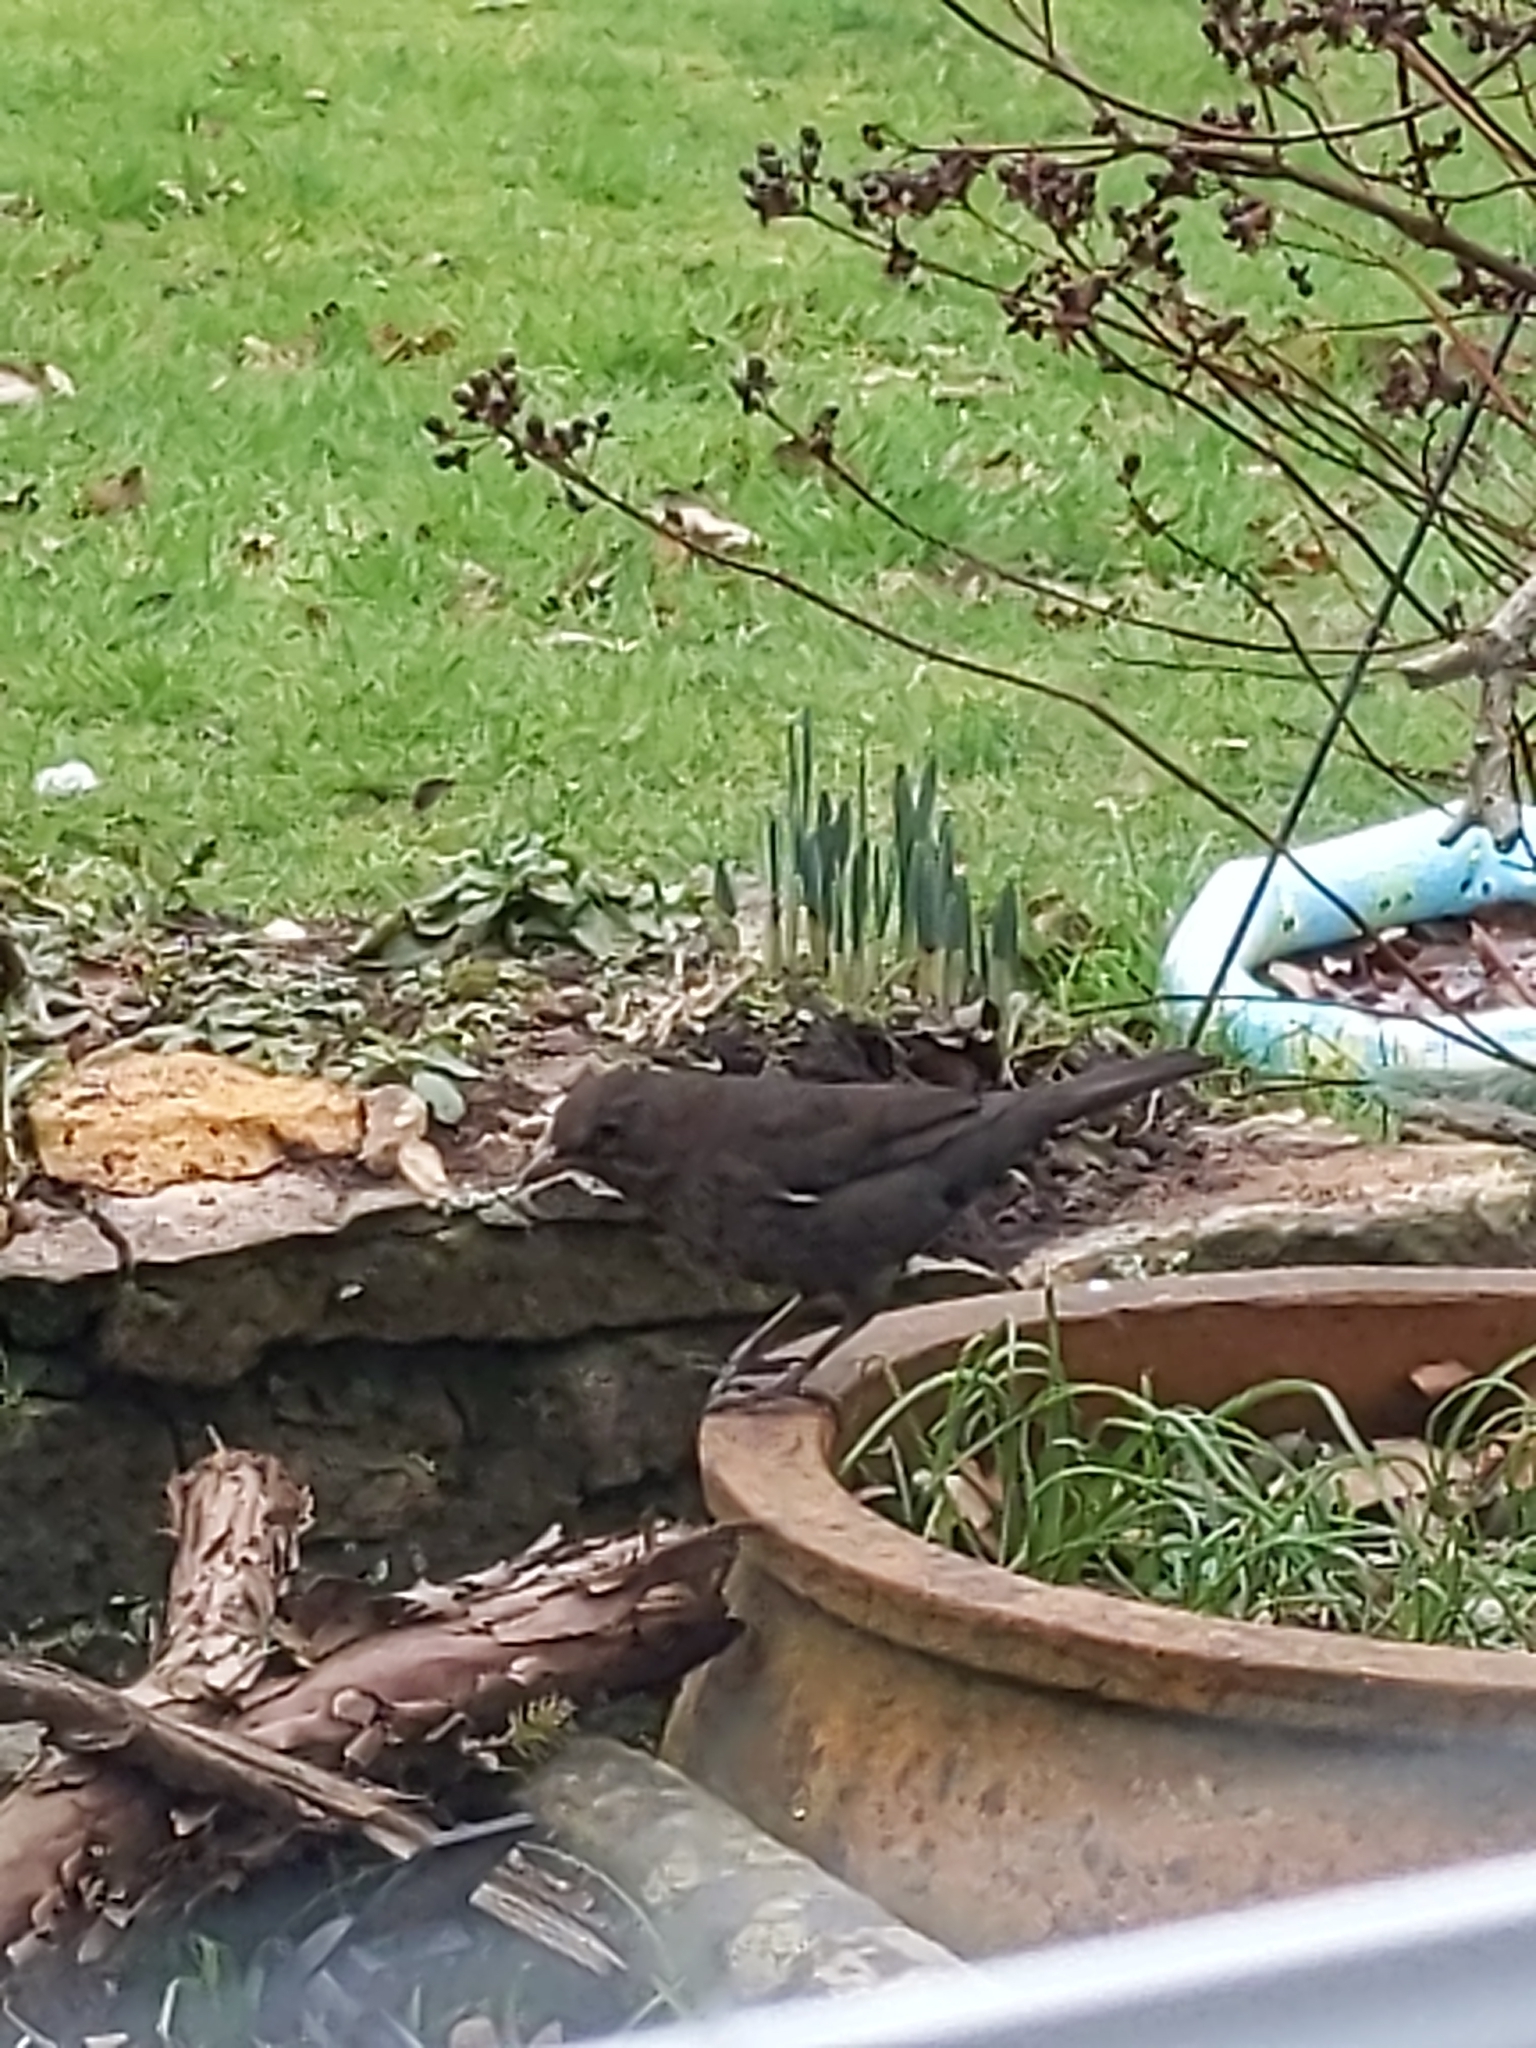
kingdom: Animalia
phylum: Chordata
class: Aves
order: Passeriformes
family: Turdidae
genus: Turdus
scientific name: Turdus merula
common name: Common blackbird
